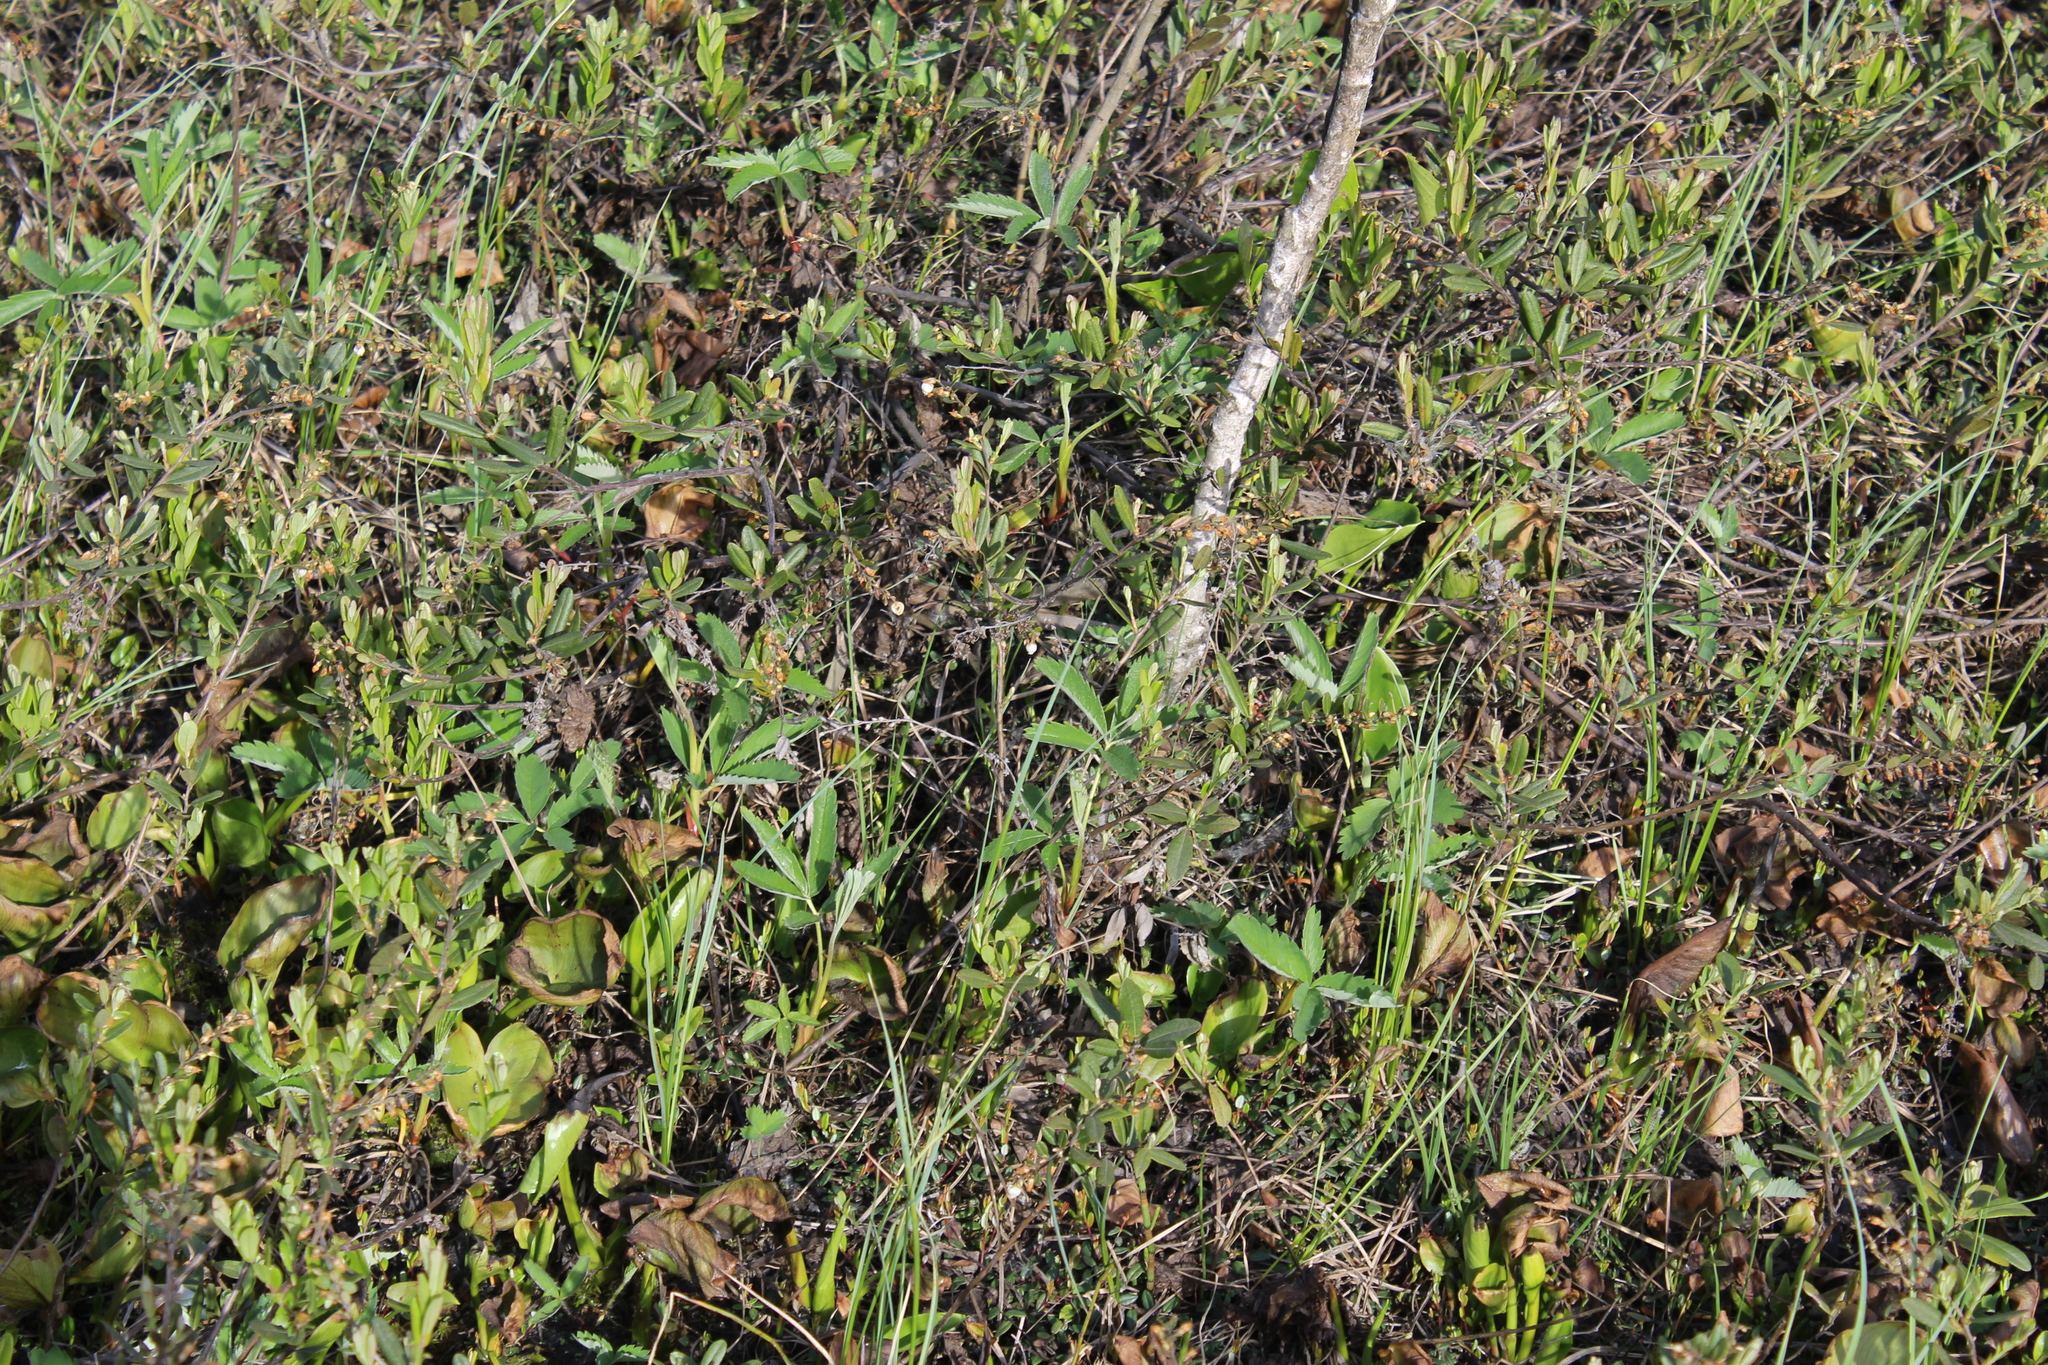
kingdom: Plantae
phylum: Tracheophyta
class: Magnoliopsida
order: Rosales
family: Rosaceae
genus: Comarum
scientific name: Comarum palustre
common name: Marsh cinquefoil
